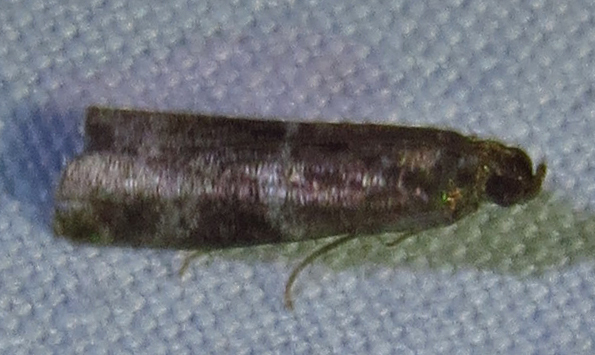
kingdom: Animalia
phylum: Arthropoda
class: Insecta
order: Lepidoptera
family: Pyralidae
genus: Moodna
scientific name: Moodna ostrinella
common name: Darker moodna moth
